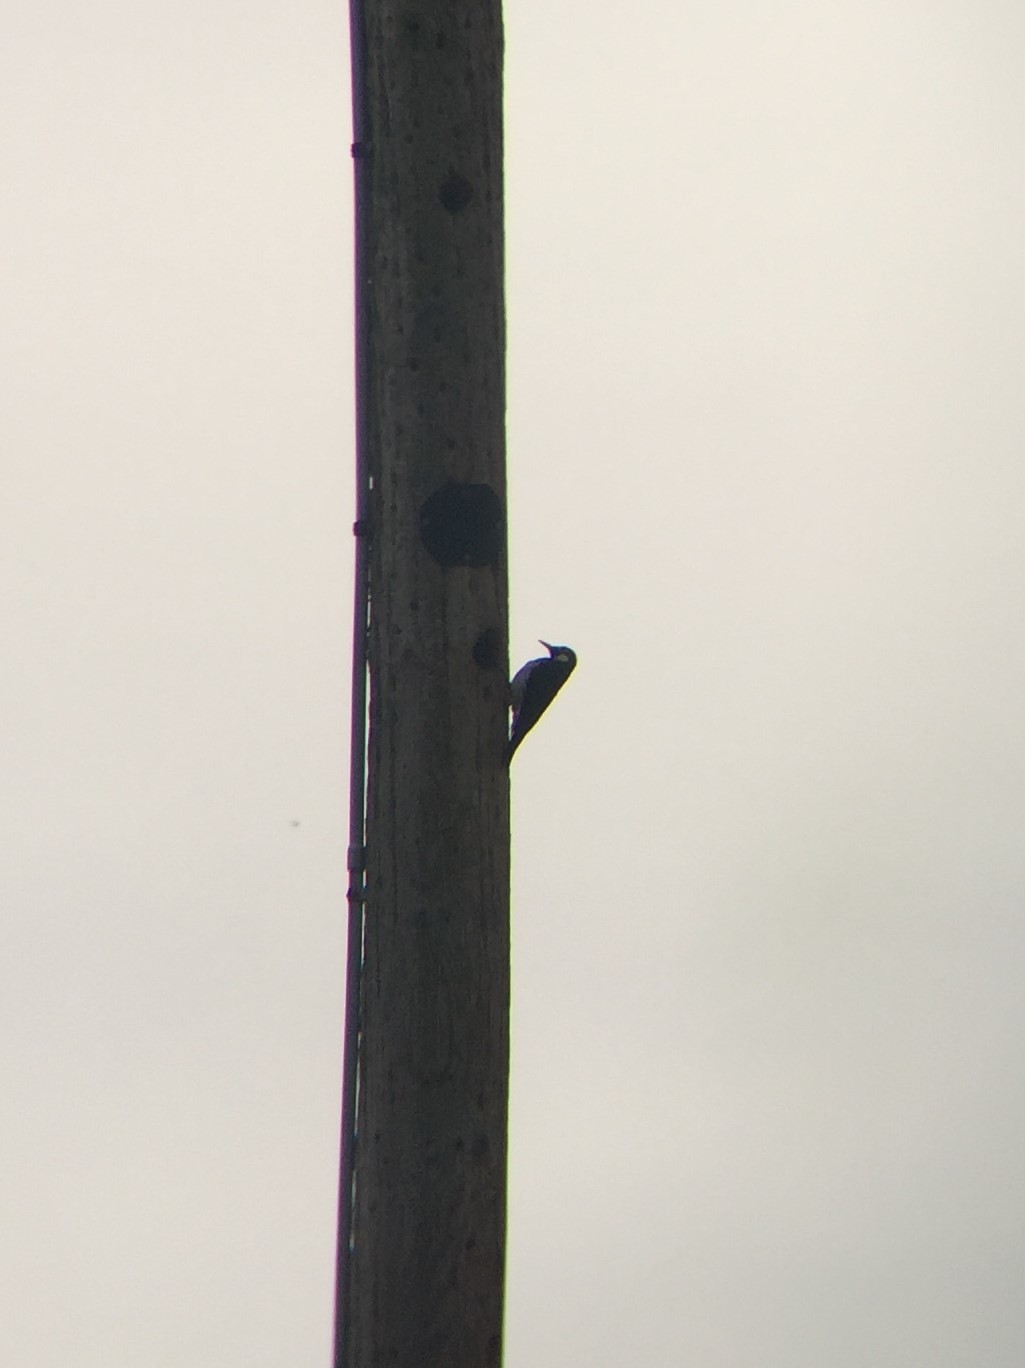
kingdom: Animalia
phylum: Chordata
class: Aves
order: Piciformes
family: Picidae
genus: Melanerpes
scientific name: Melanerpes formicivorus
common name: Acorn woodpecker
